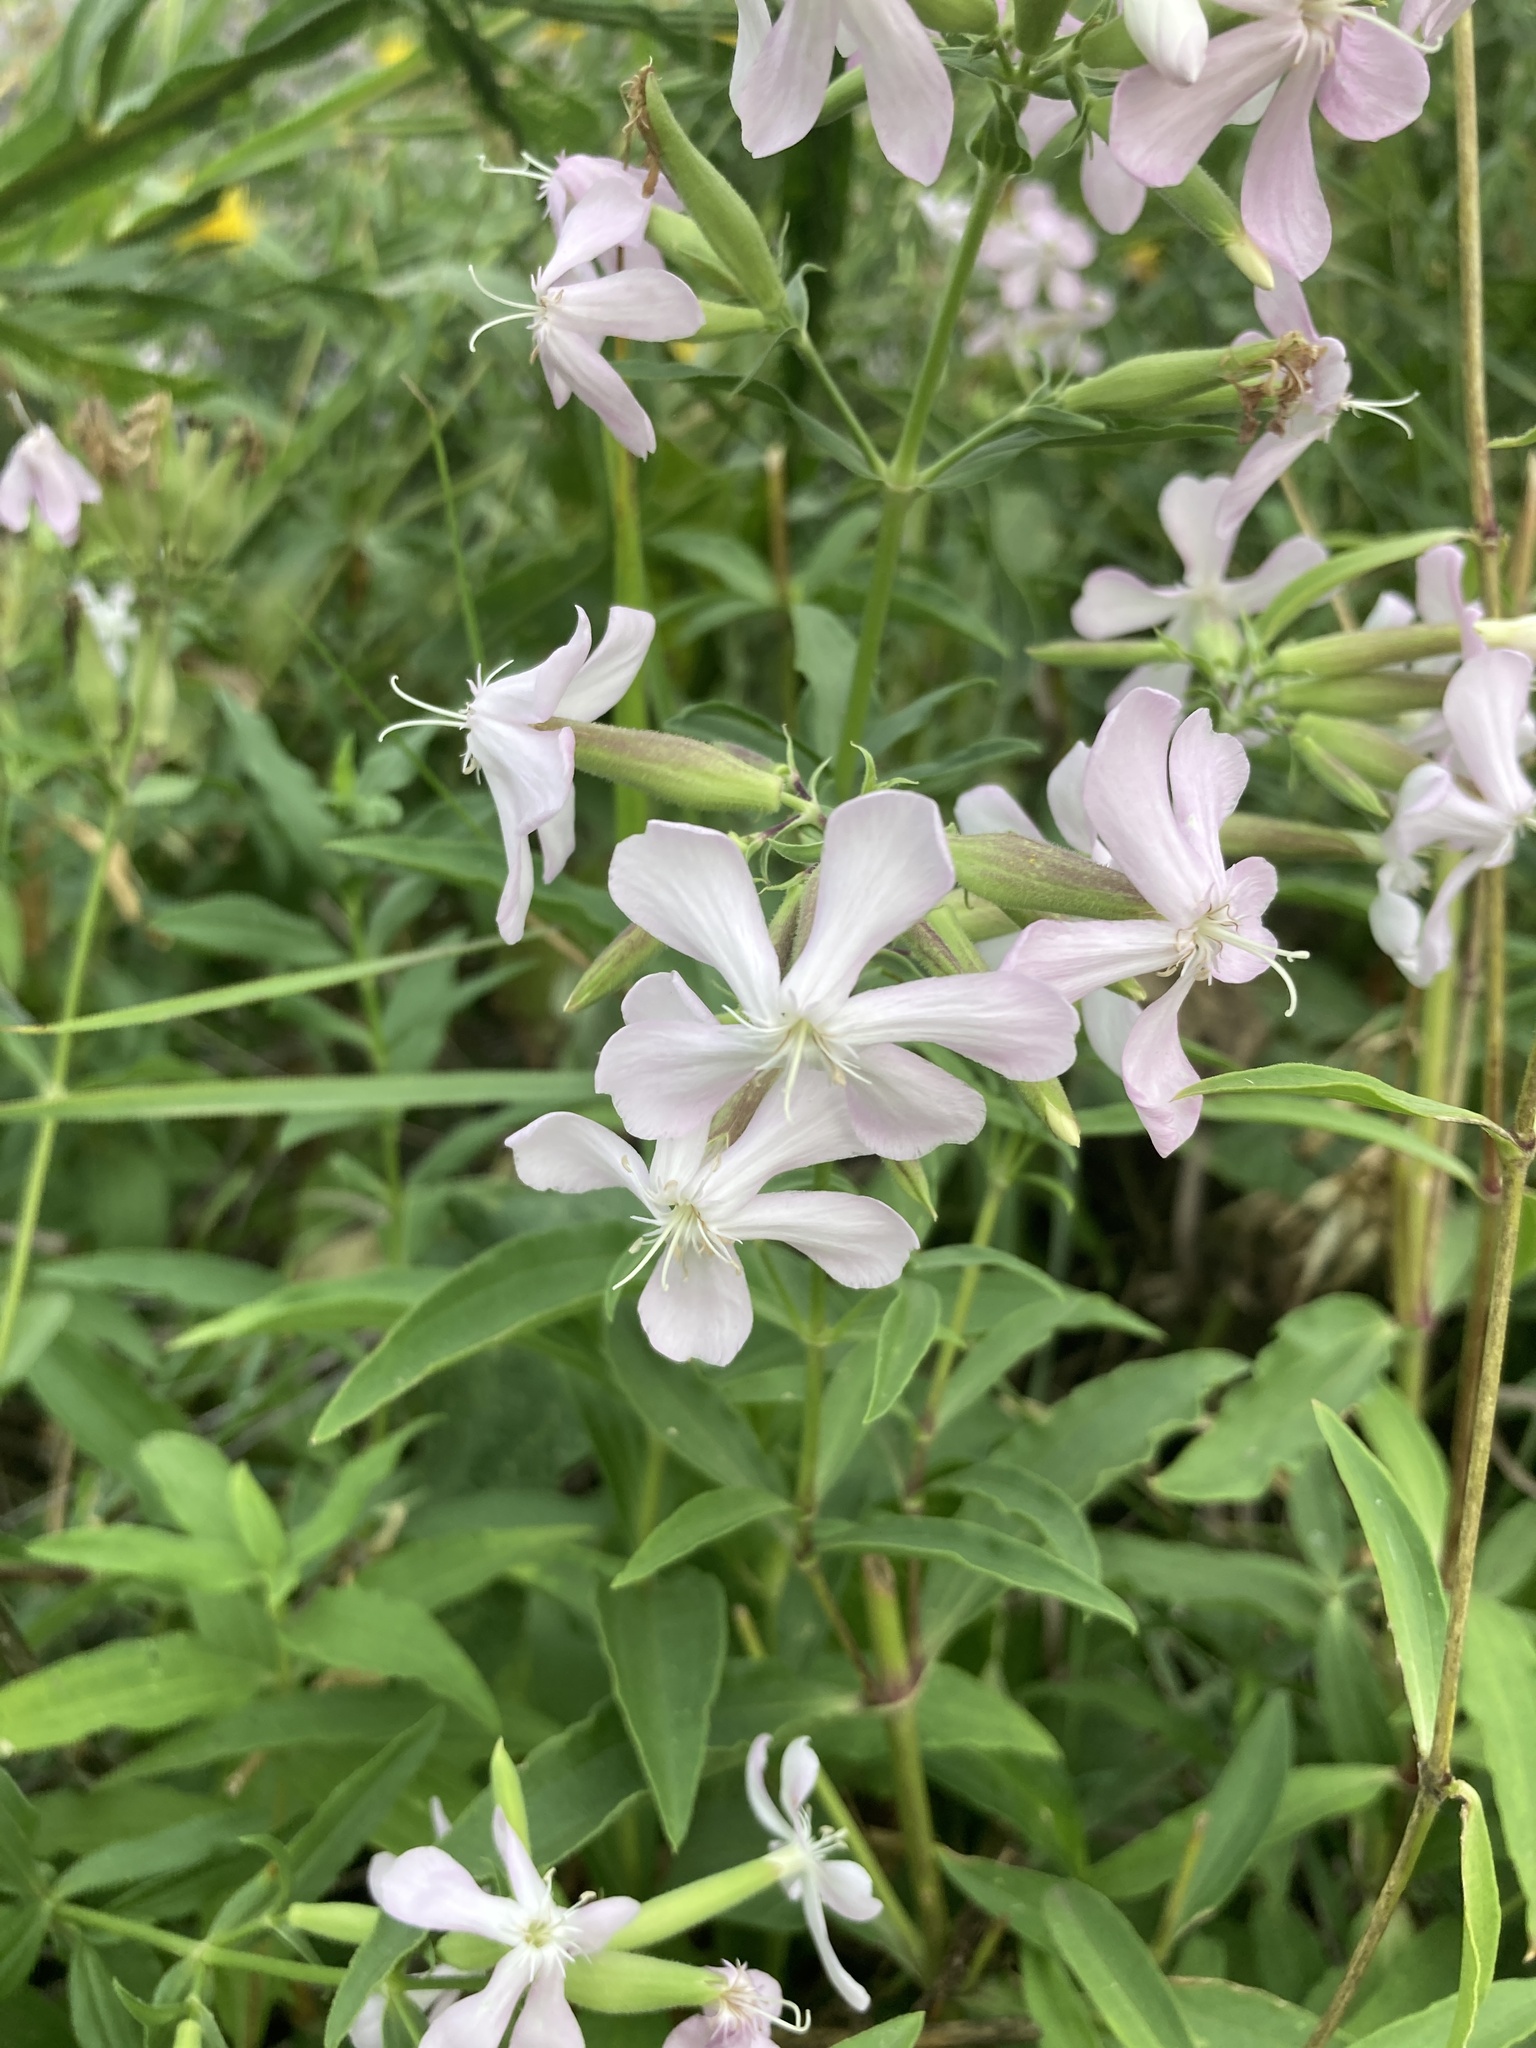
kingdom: Plantae
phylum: Tracheophyta
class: Magnoliopsida
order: Caryophyllales
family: Caryophyllaceae
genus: Saponaria
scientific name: Saponaria officinalis
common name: Soapwort
